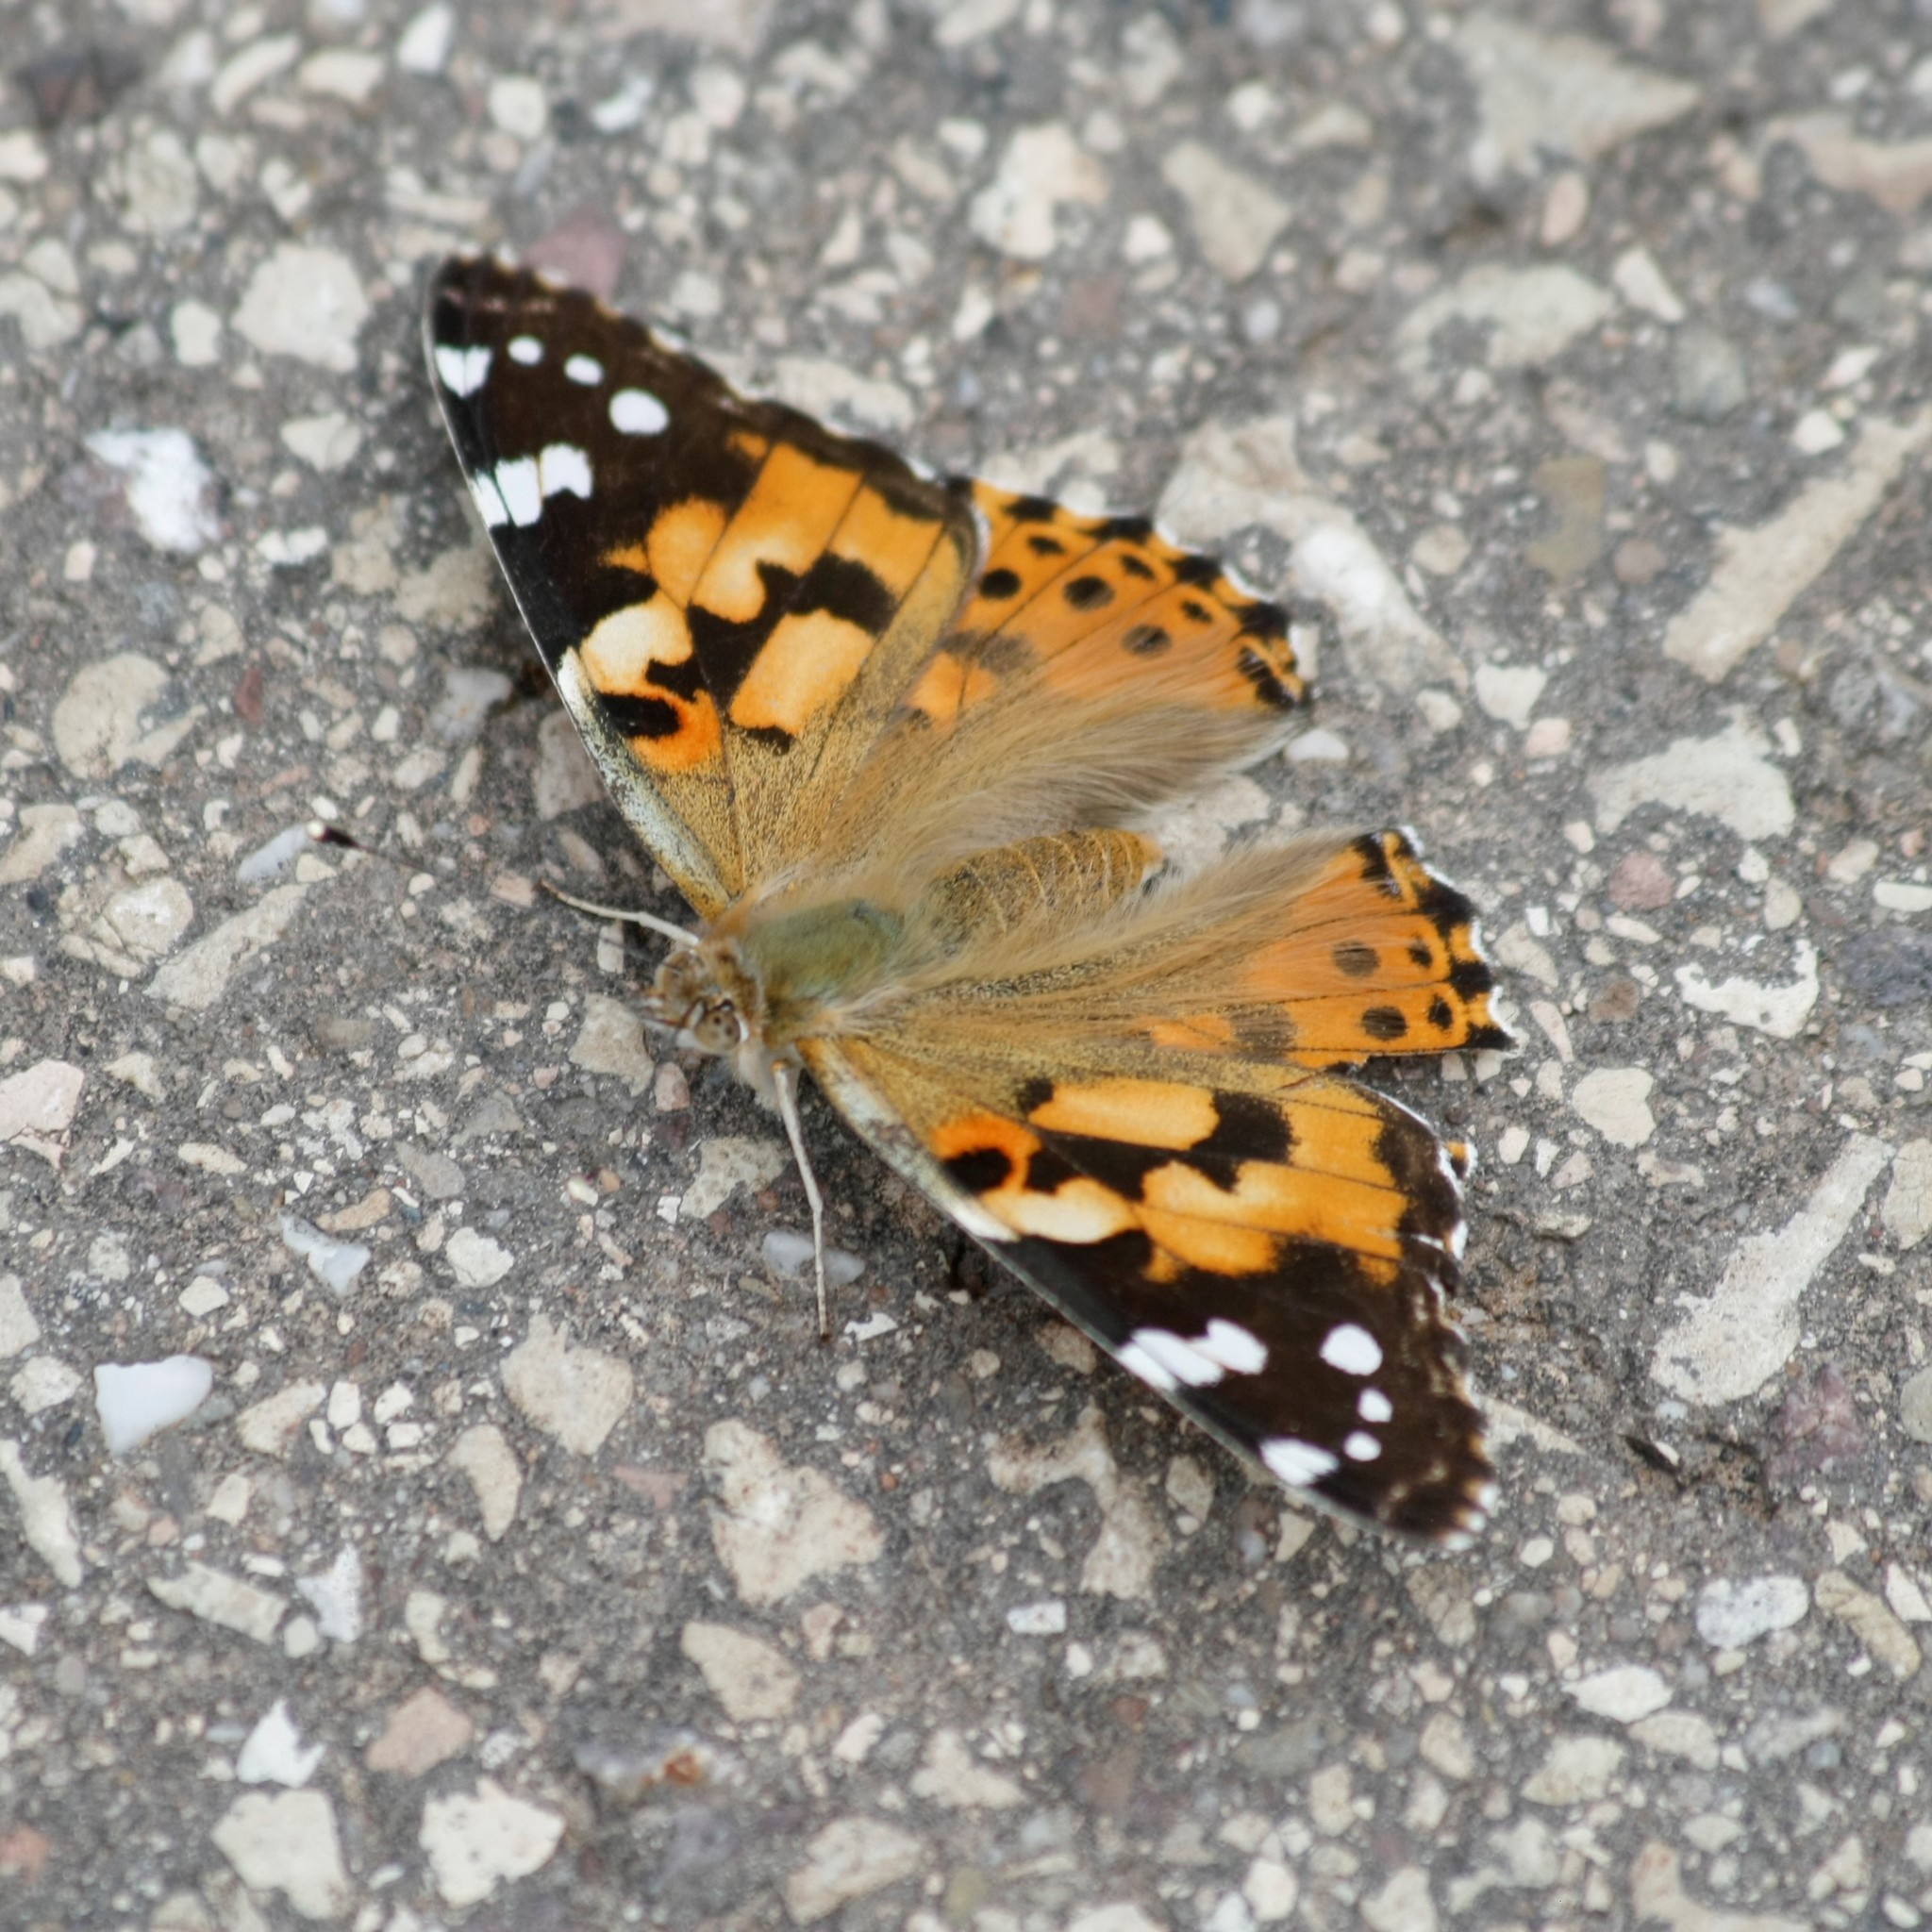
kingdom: Animalia
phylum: Arthropoda
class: Insecta
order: Lepidoptera
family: Nymphalidae
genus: Vanessa
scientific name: Vanessa cardui
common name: Painted lady
